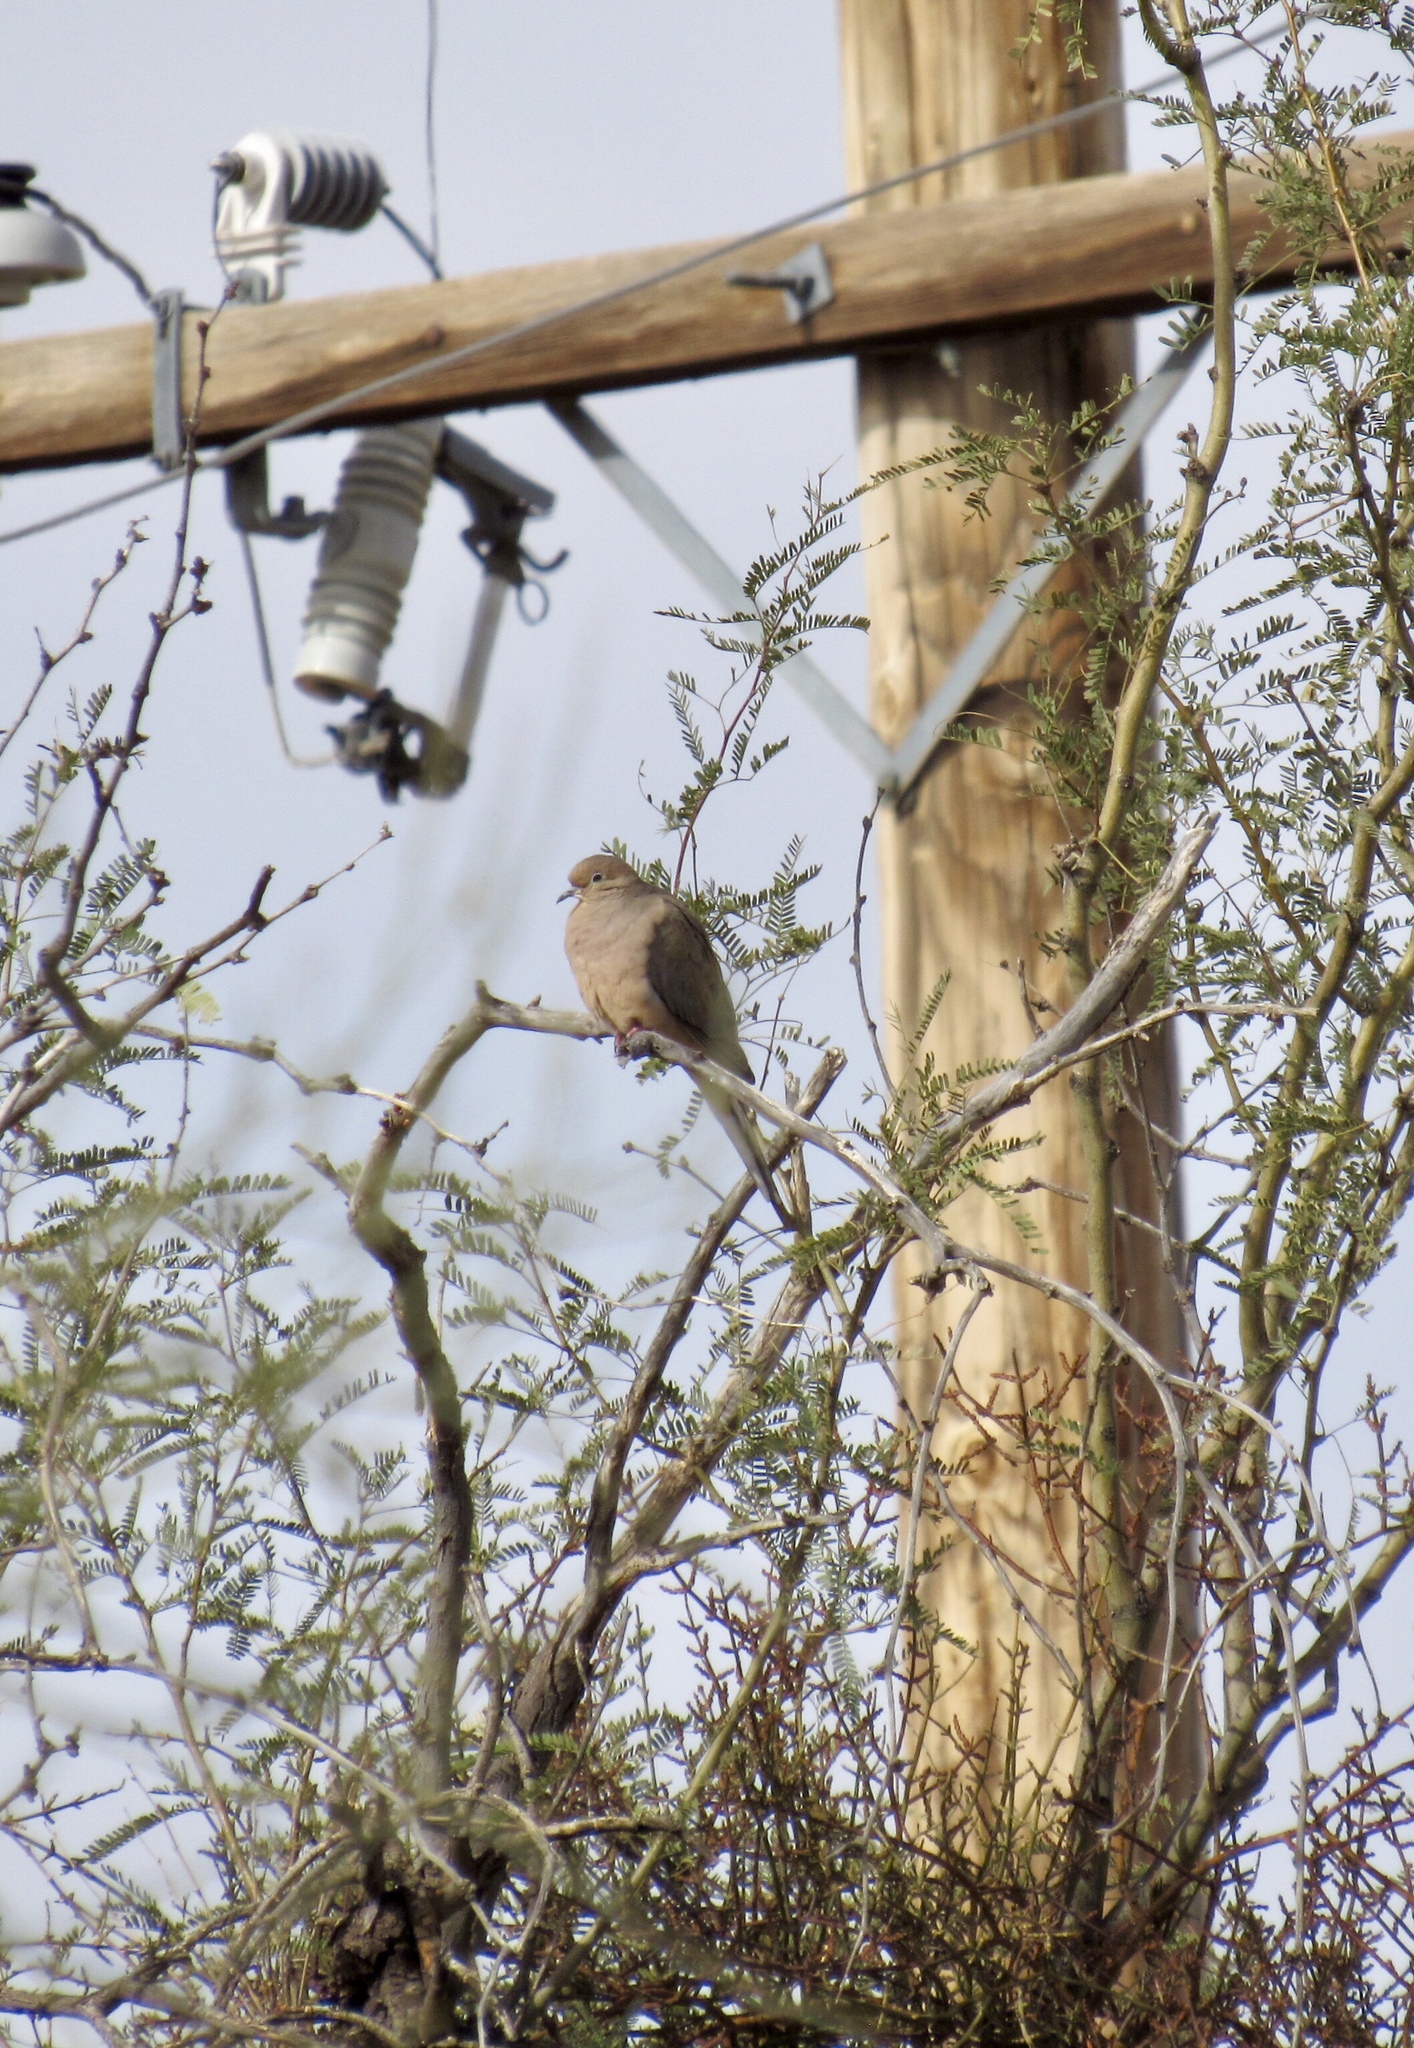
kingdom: Animalia
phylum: Chordata
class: Aves
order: Columbiformes
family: Columbidae
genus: Zenaida
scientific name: Zenaida macroura
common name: Mourning dove
